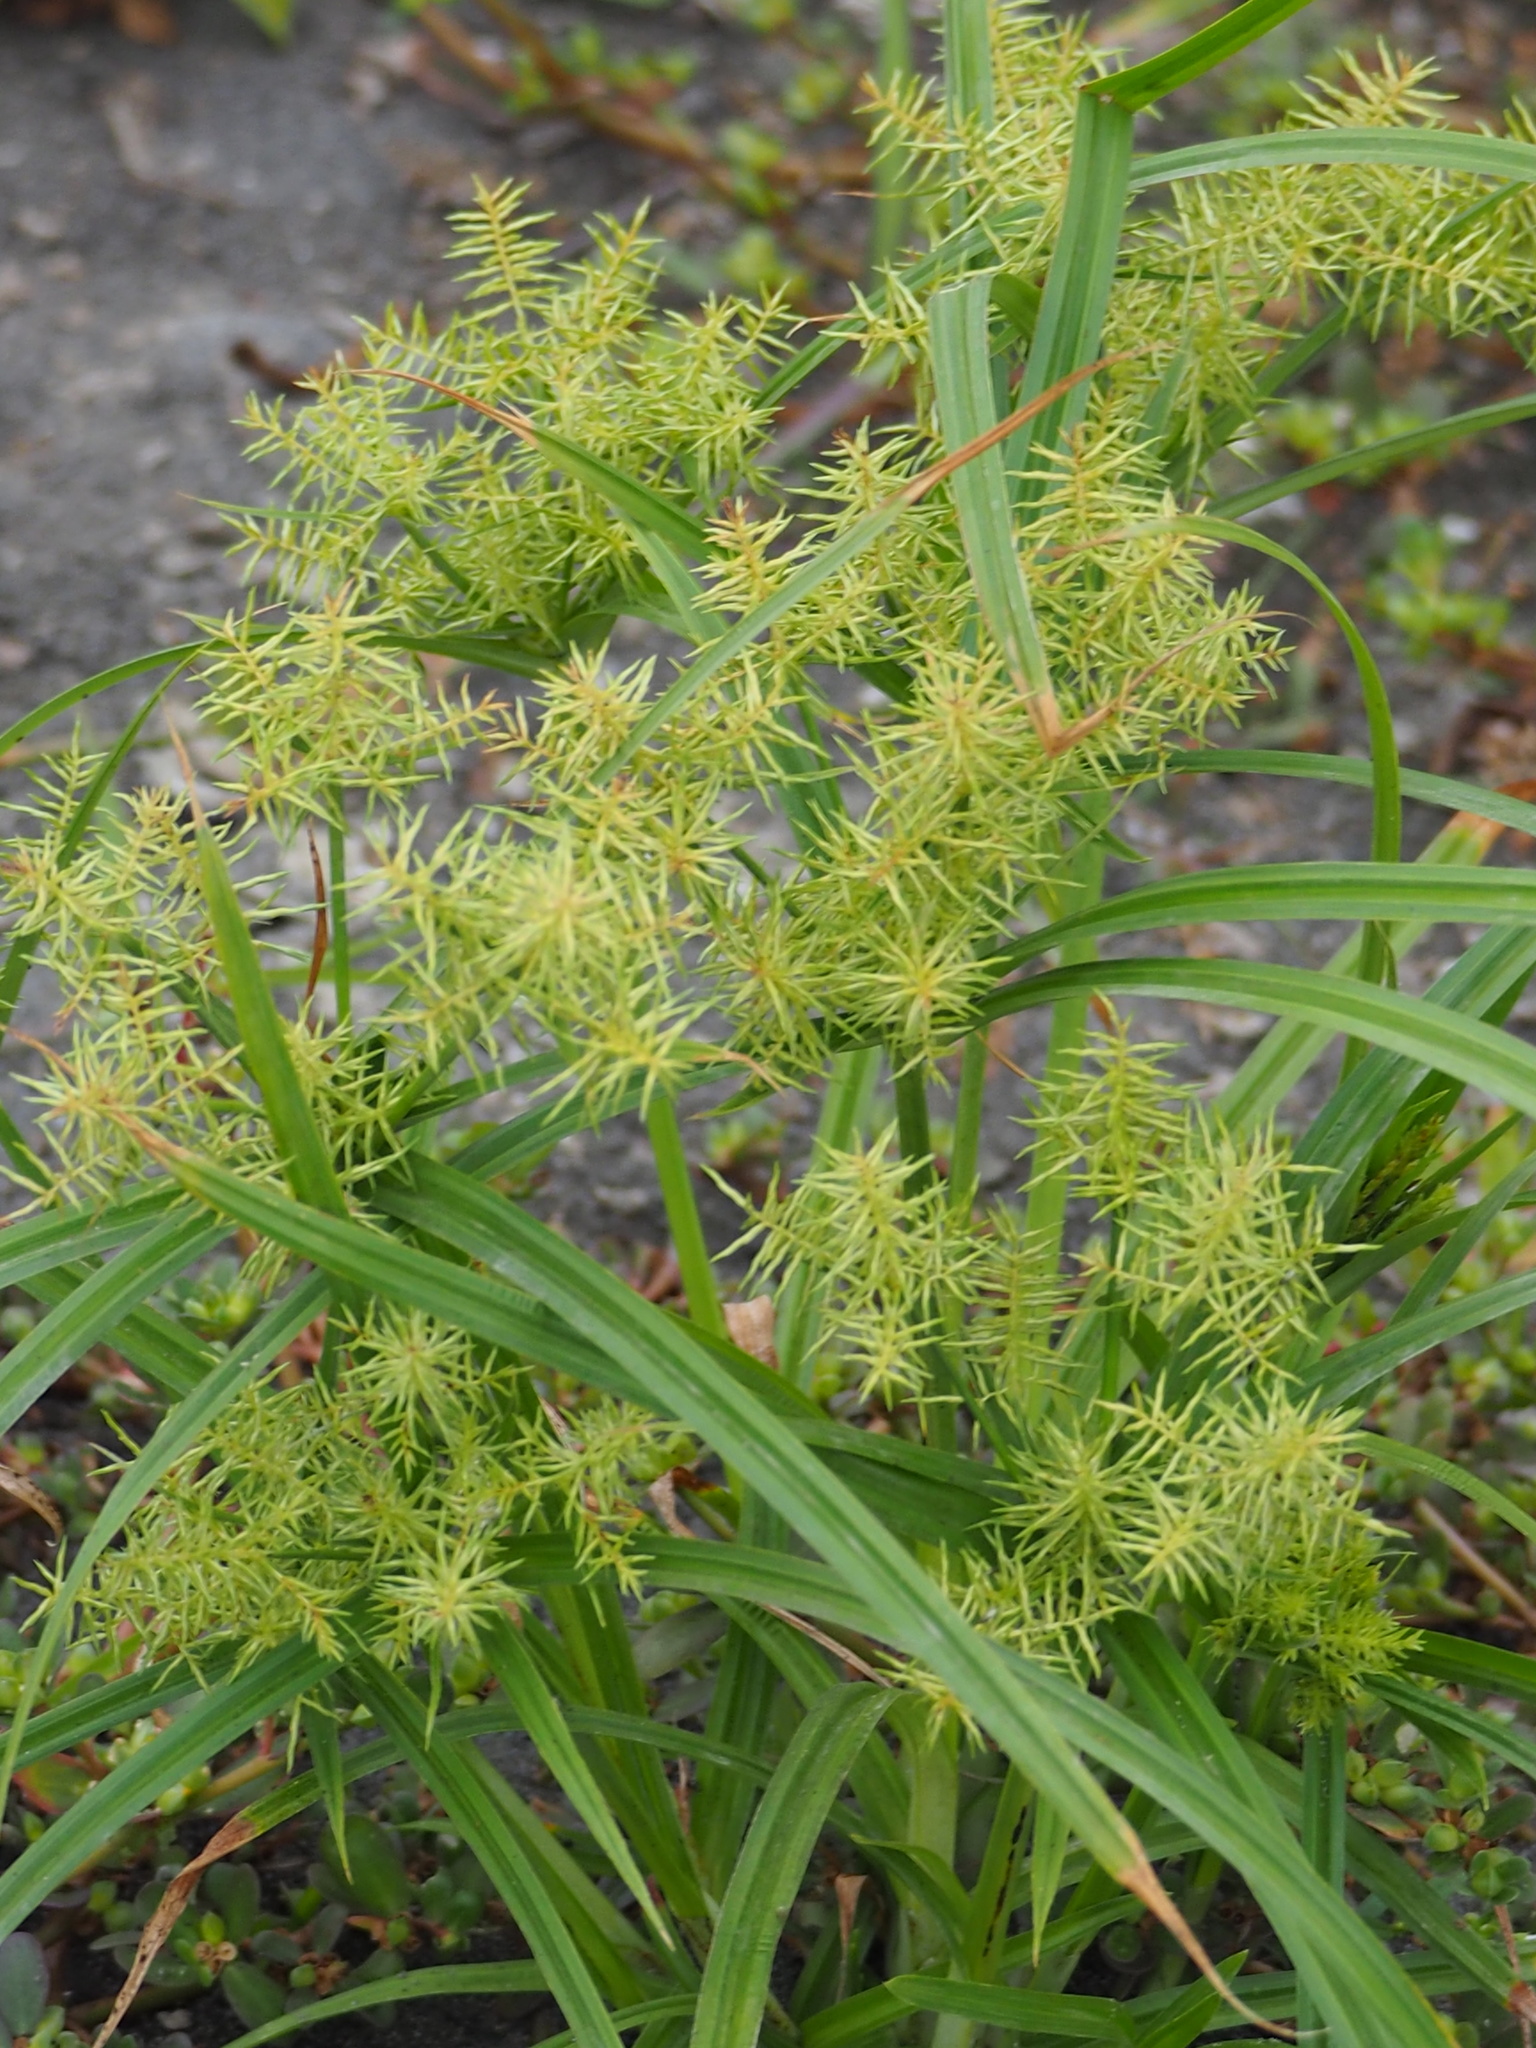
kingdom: Plantae
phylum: Tracheophyta
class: Liliopsida
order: Poales
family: Cyperaceae
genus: Cyperus
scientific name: Cyperus odoratus
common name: Fragrant flatsedge
